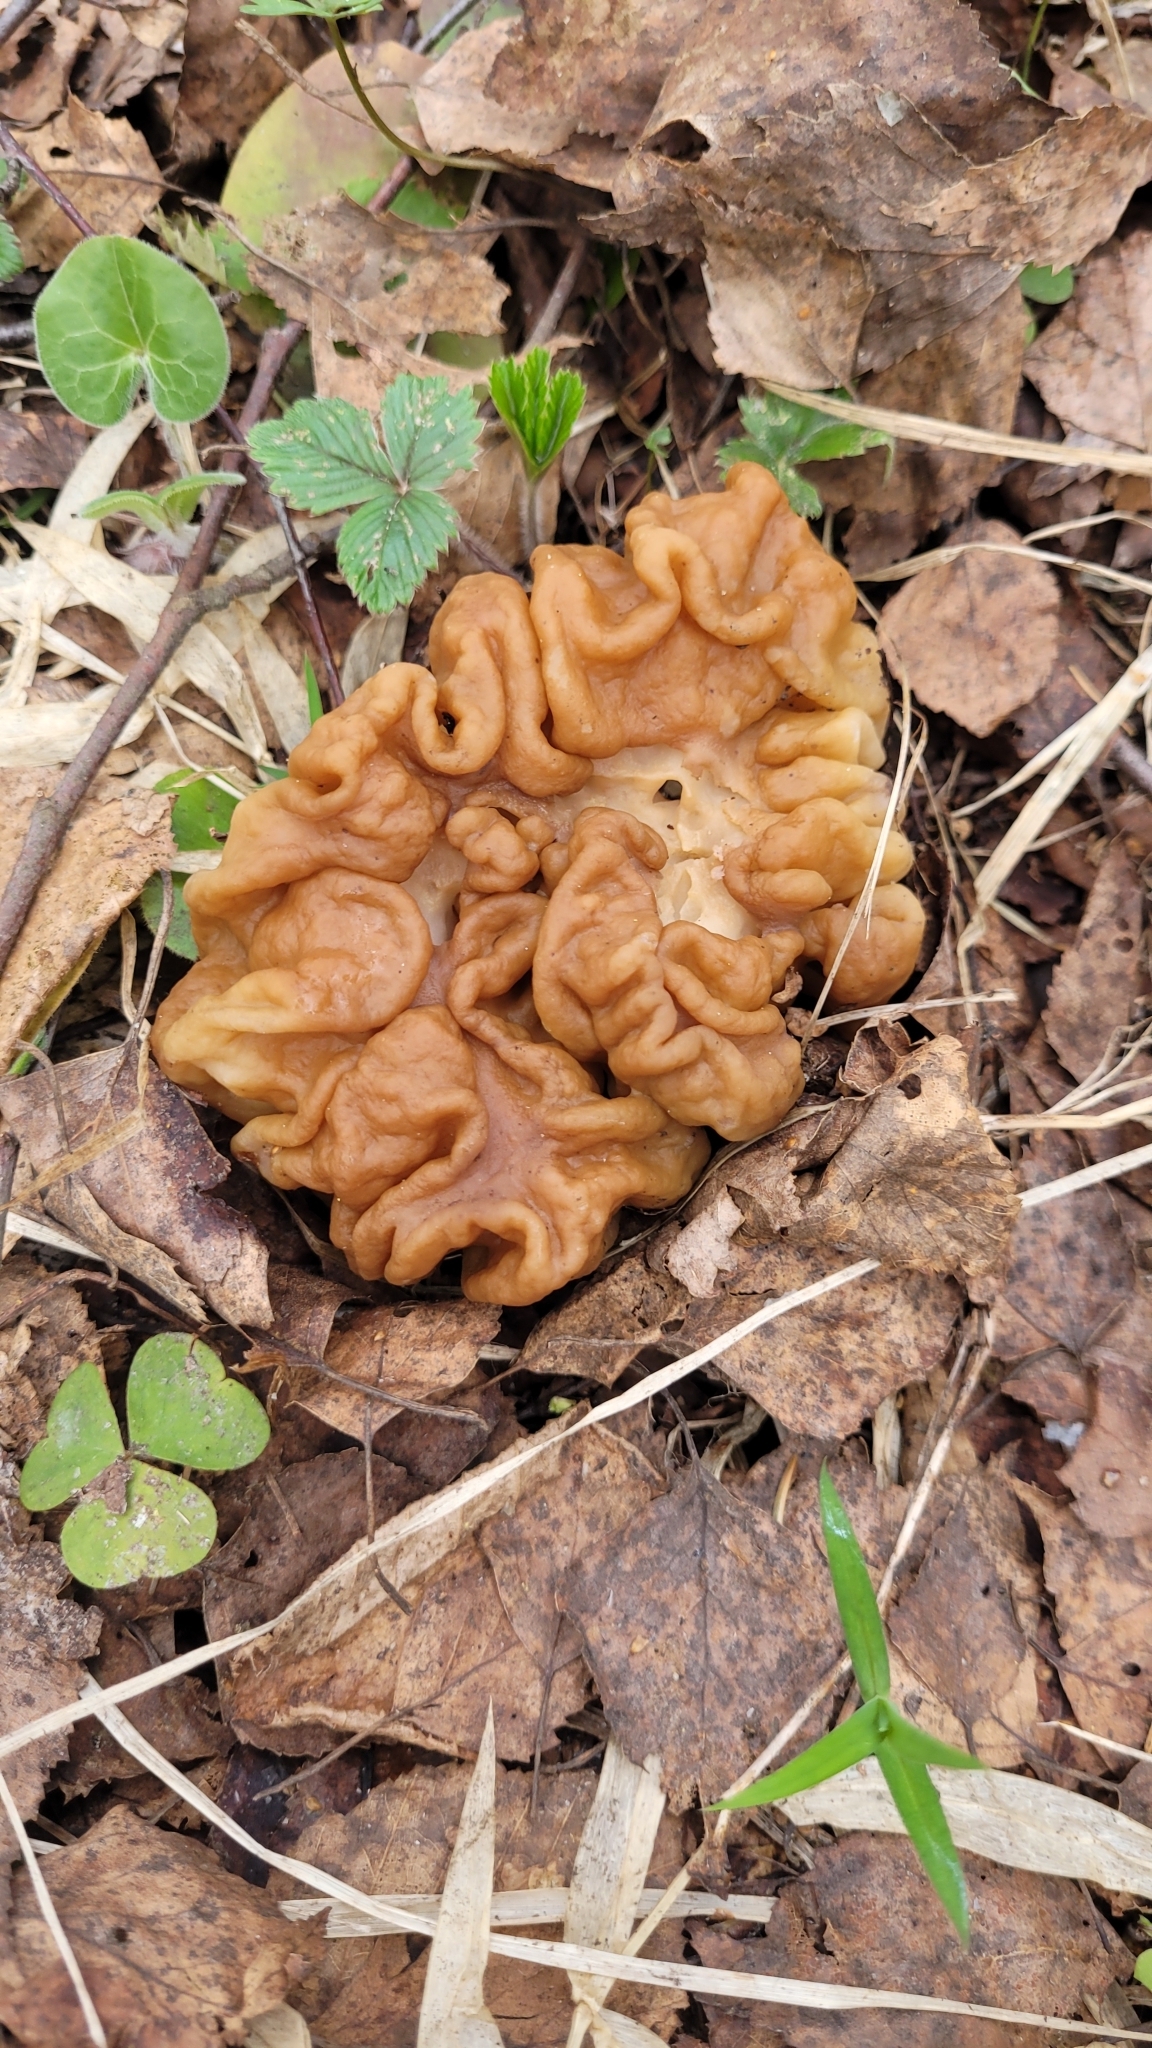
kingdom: Fungi
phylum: Ascomycota
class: Pezizomycetes
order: Pezizales
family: Discinaceae
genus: Gyromitra
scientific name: Gyromitra gigas
